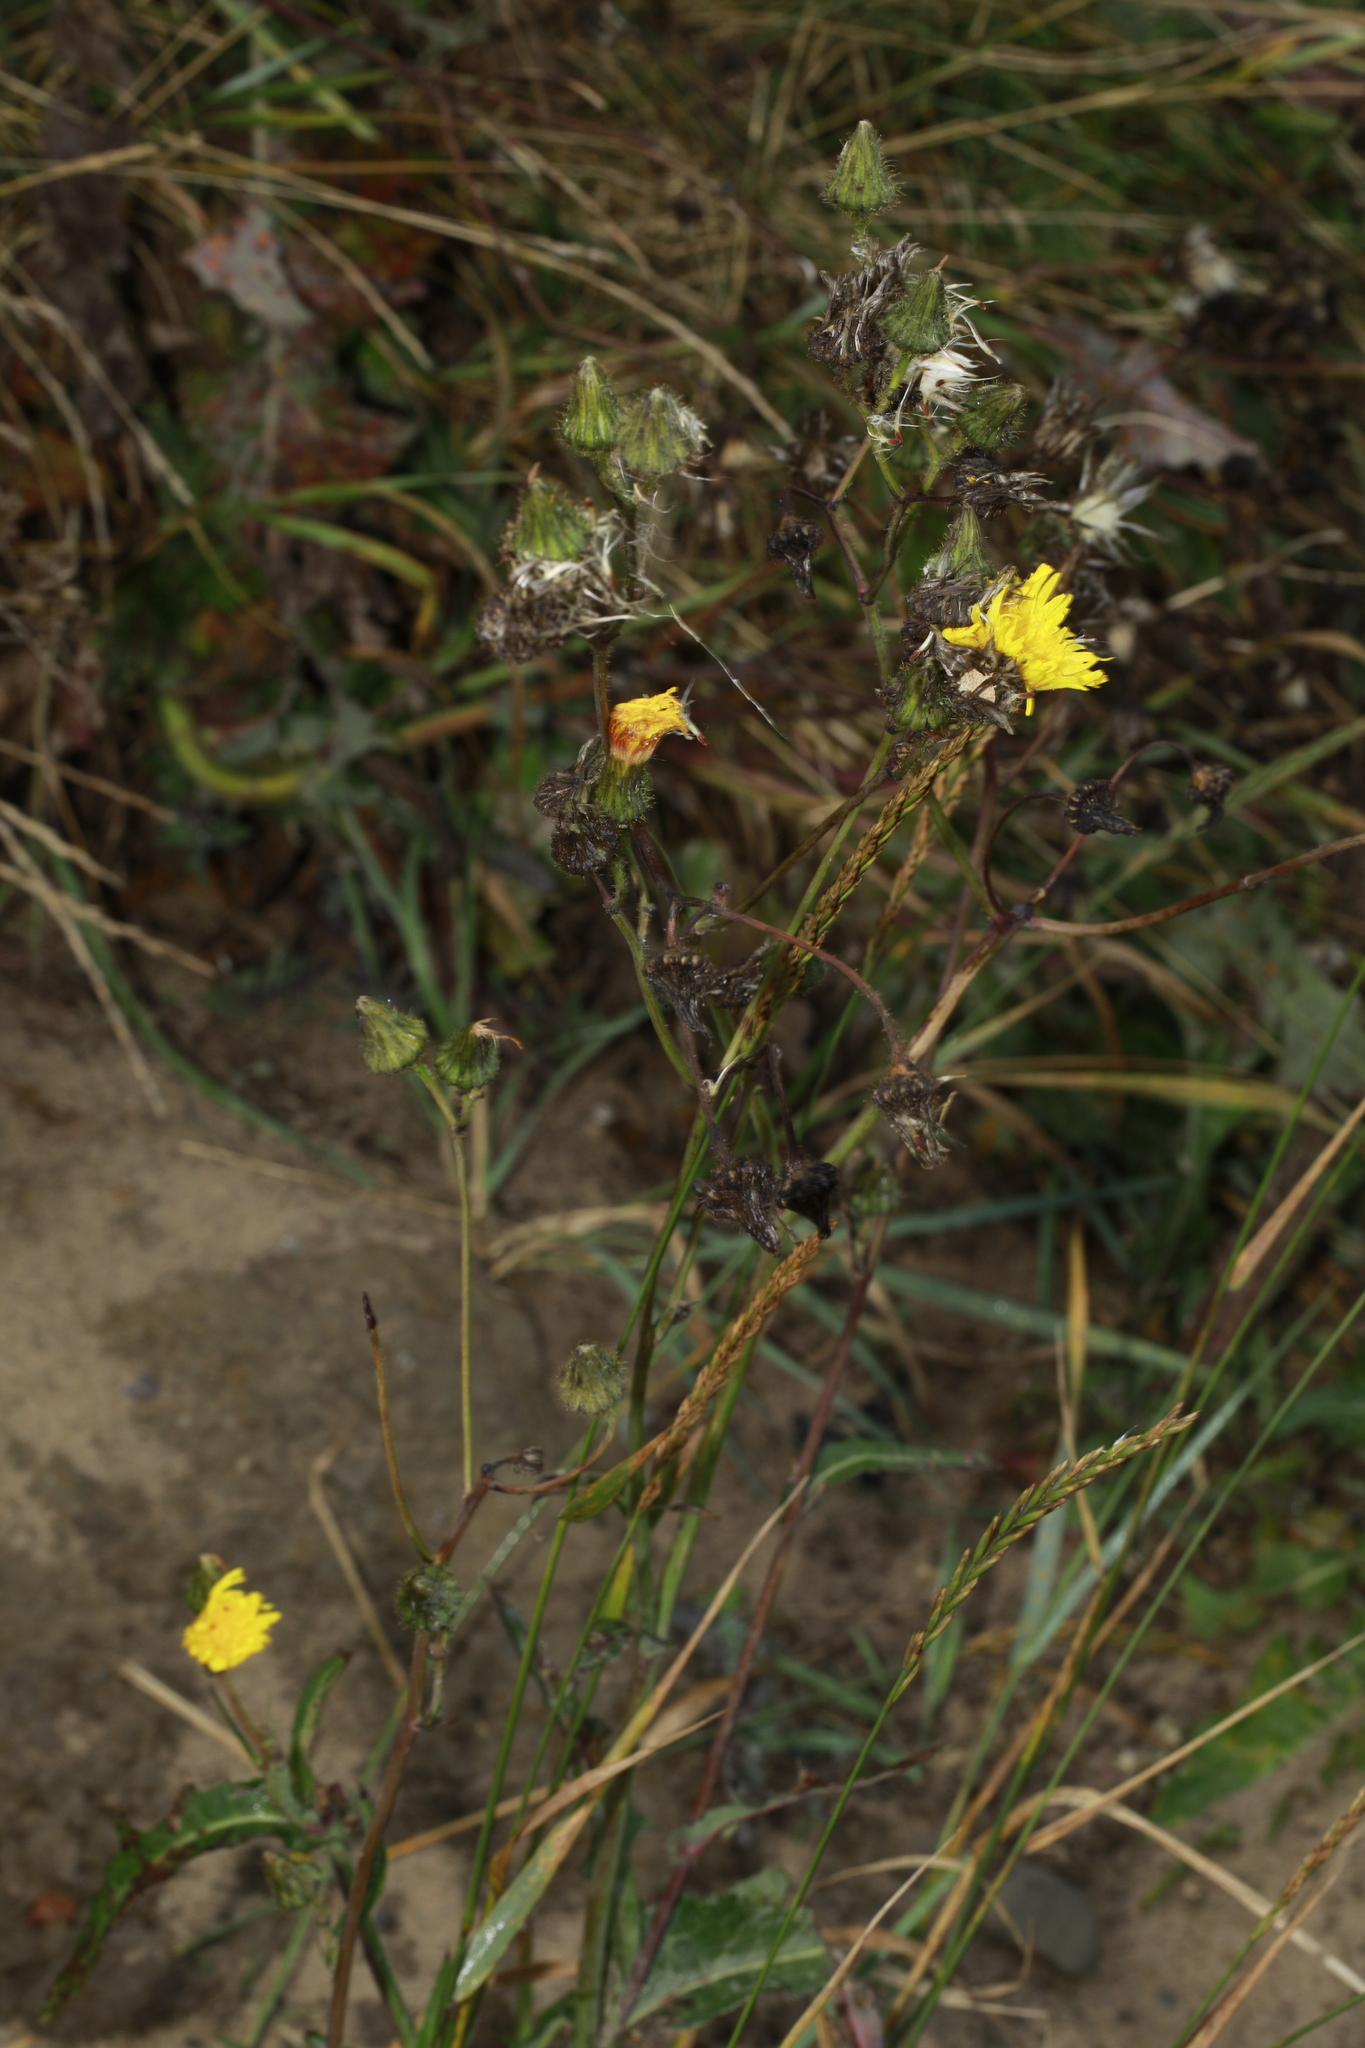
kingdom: Plantae
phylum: Tracheophyta
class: Magnoliopsida
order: Asterales
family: Asteraceae
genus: Sonchus
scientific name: Sonchus arvensis
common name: Perennial sow-thistle
